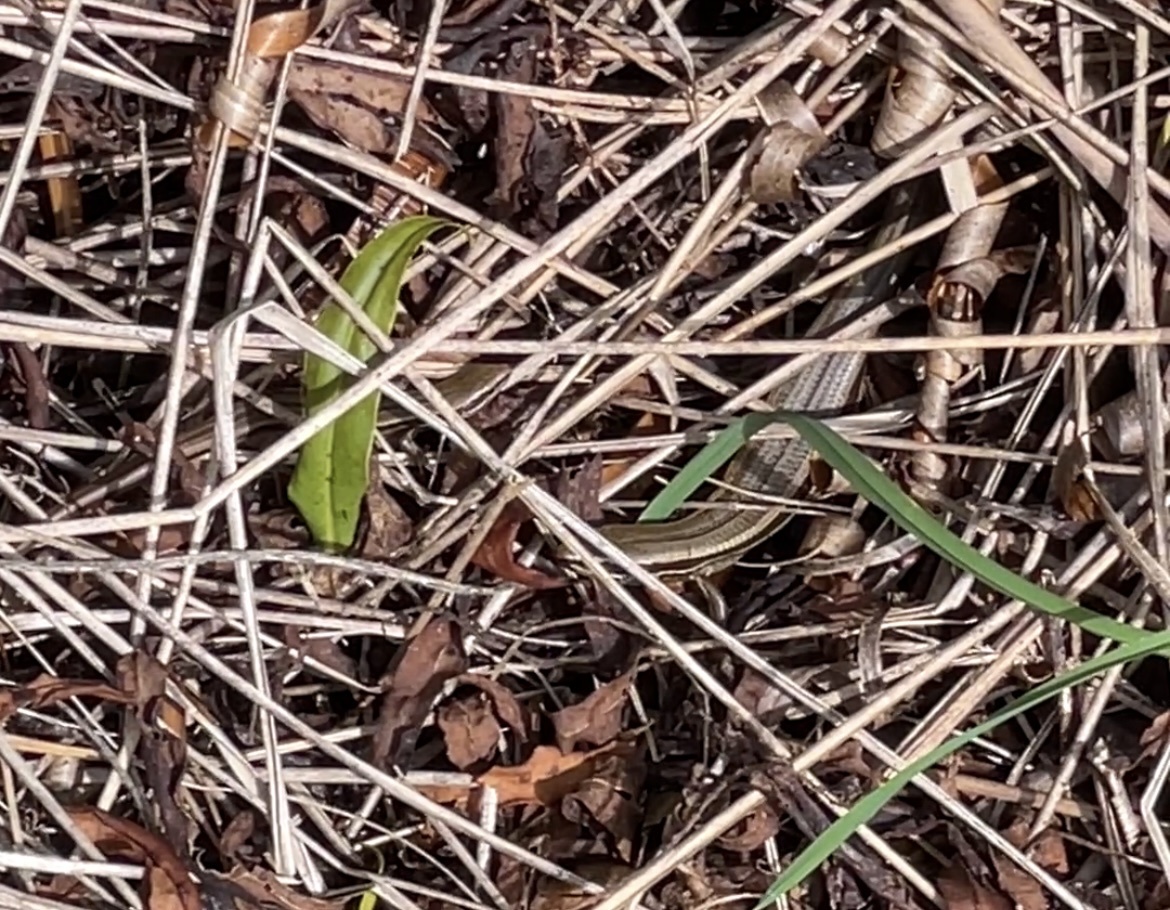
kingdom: Animalia
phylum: Chordata
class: Squamata
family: Scincidae
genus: Oligosoma
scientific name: Oligosoma polychroma
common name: Common new zealand skink
